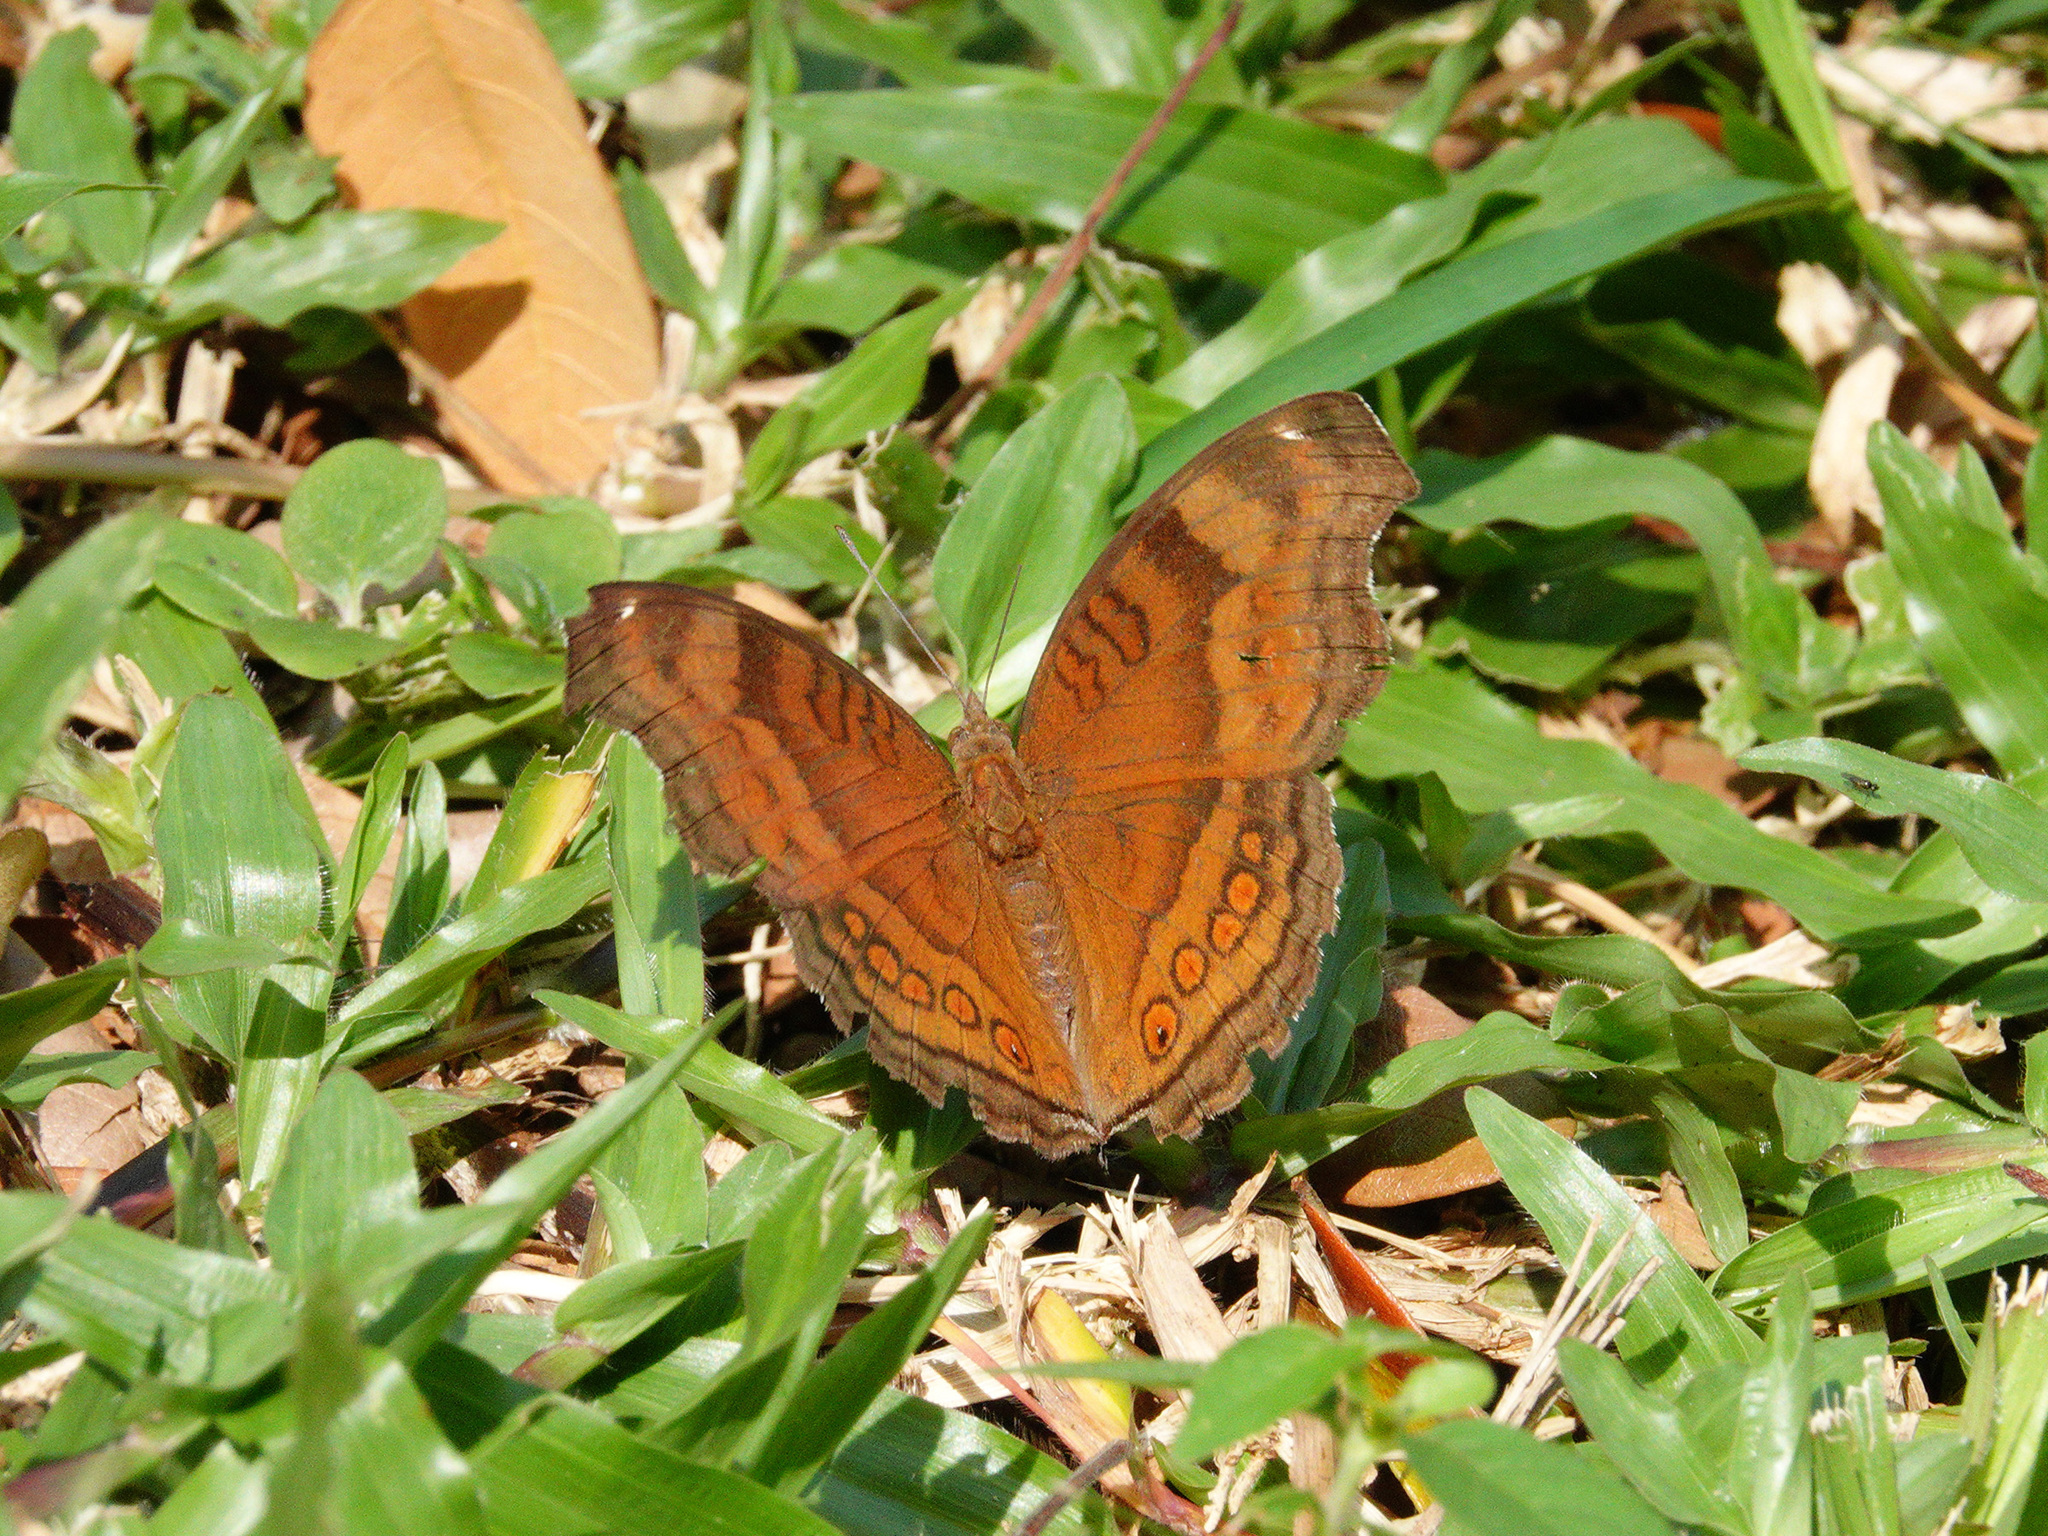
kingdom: Animalia
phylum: Arthropoda
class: Insecta
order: Lepidoptera
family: Nymphalidae
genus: Junonia
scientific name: Junonia hedonia
